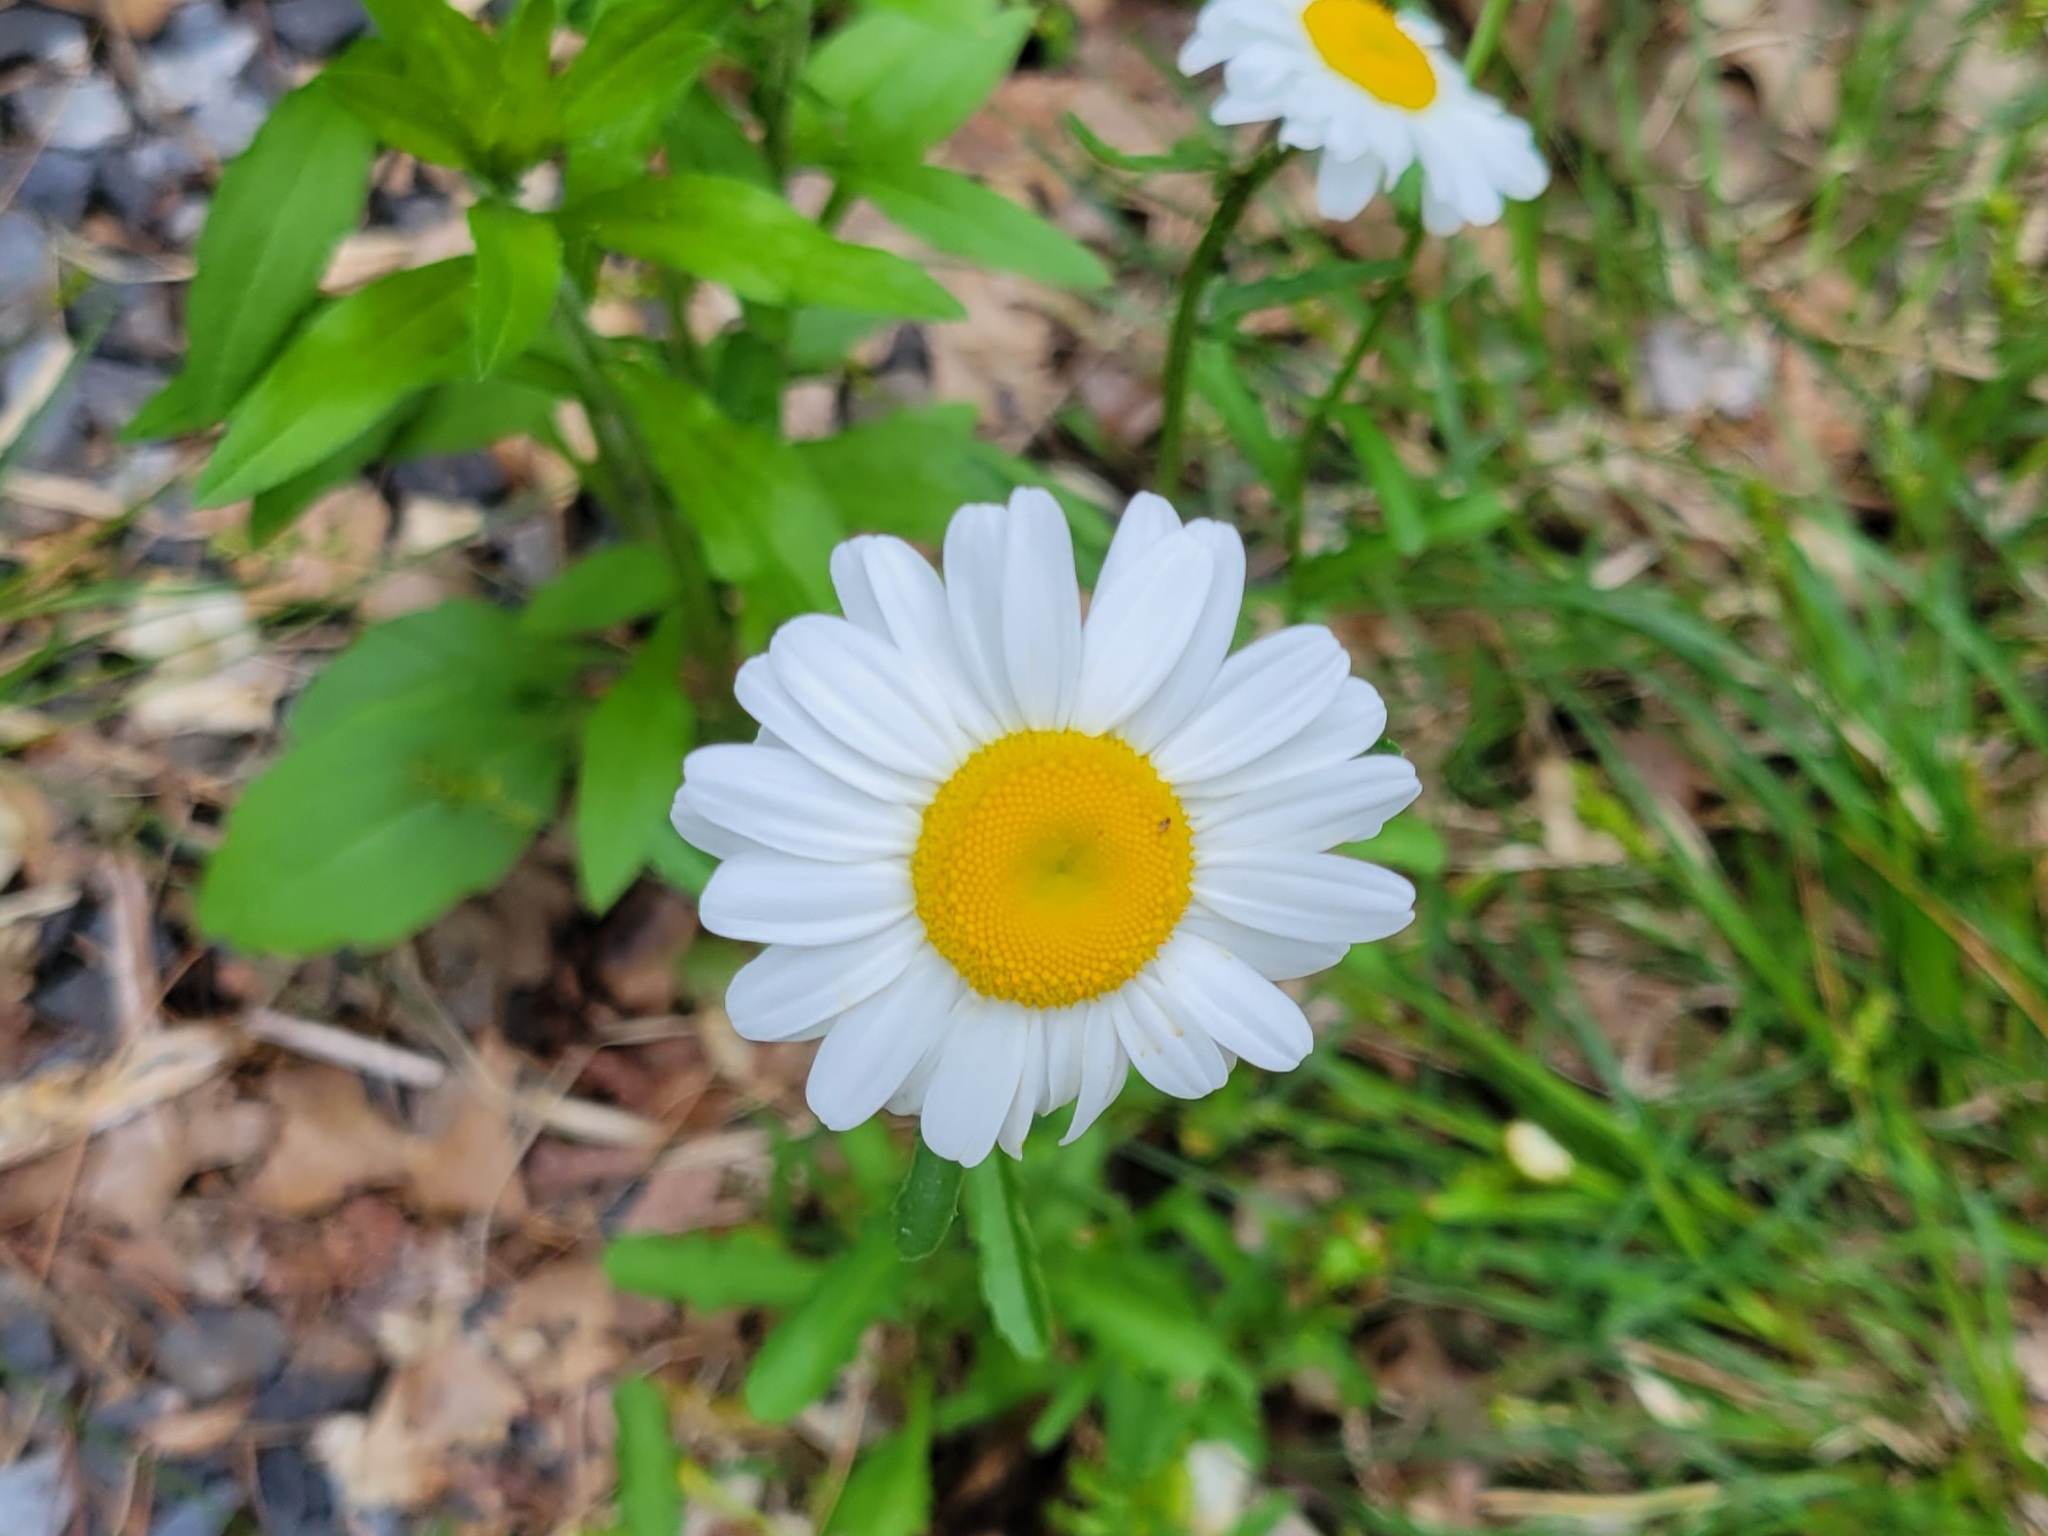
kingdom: Plantae
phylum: Tracheophyta
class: Magnoliopsida
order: Asterales
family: Asteraceae
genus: Leucanthemum
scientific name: Leucanthemum vulgare
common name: Oxeye daisy
